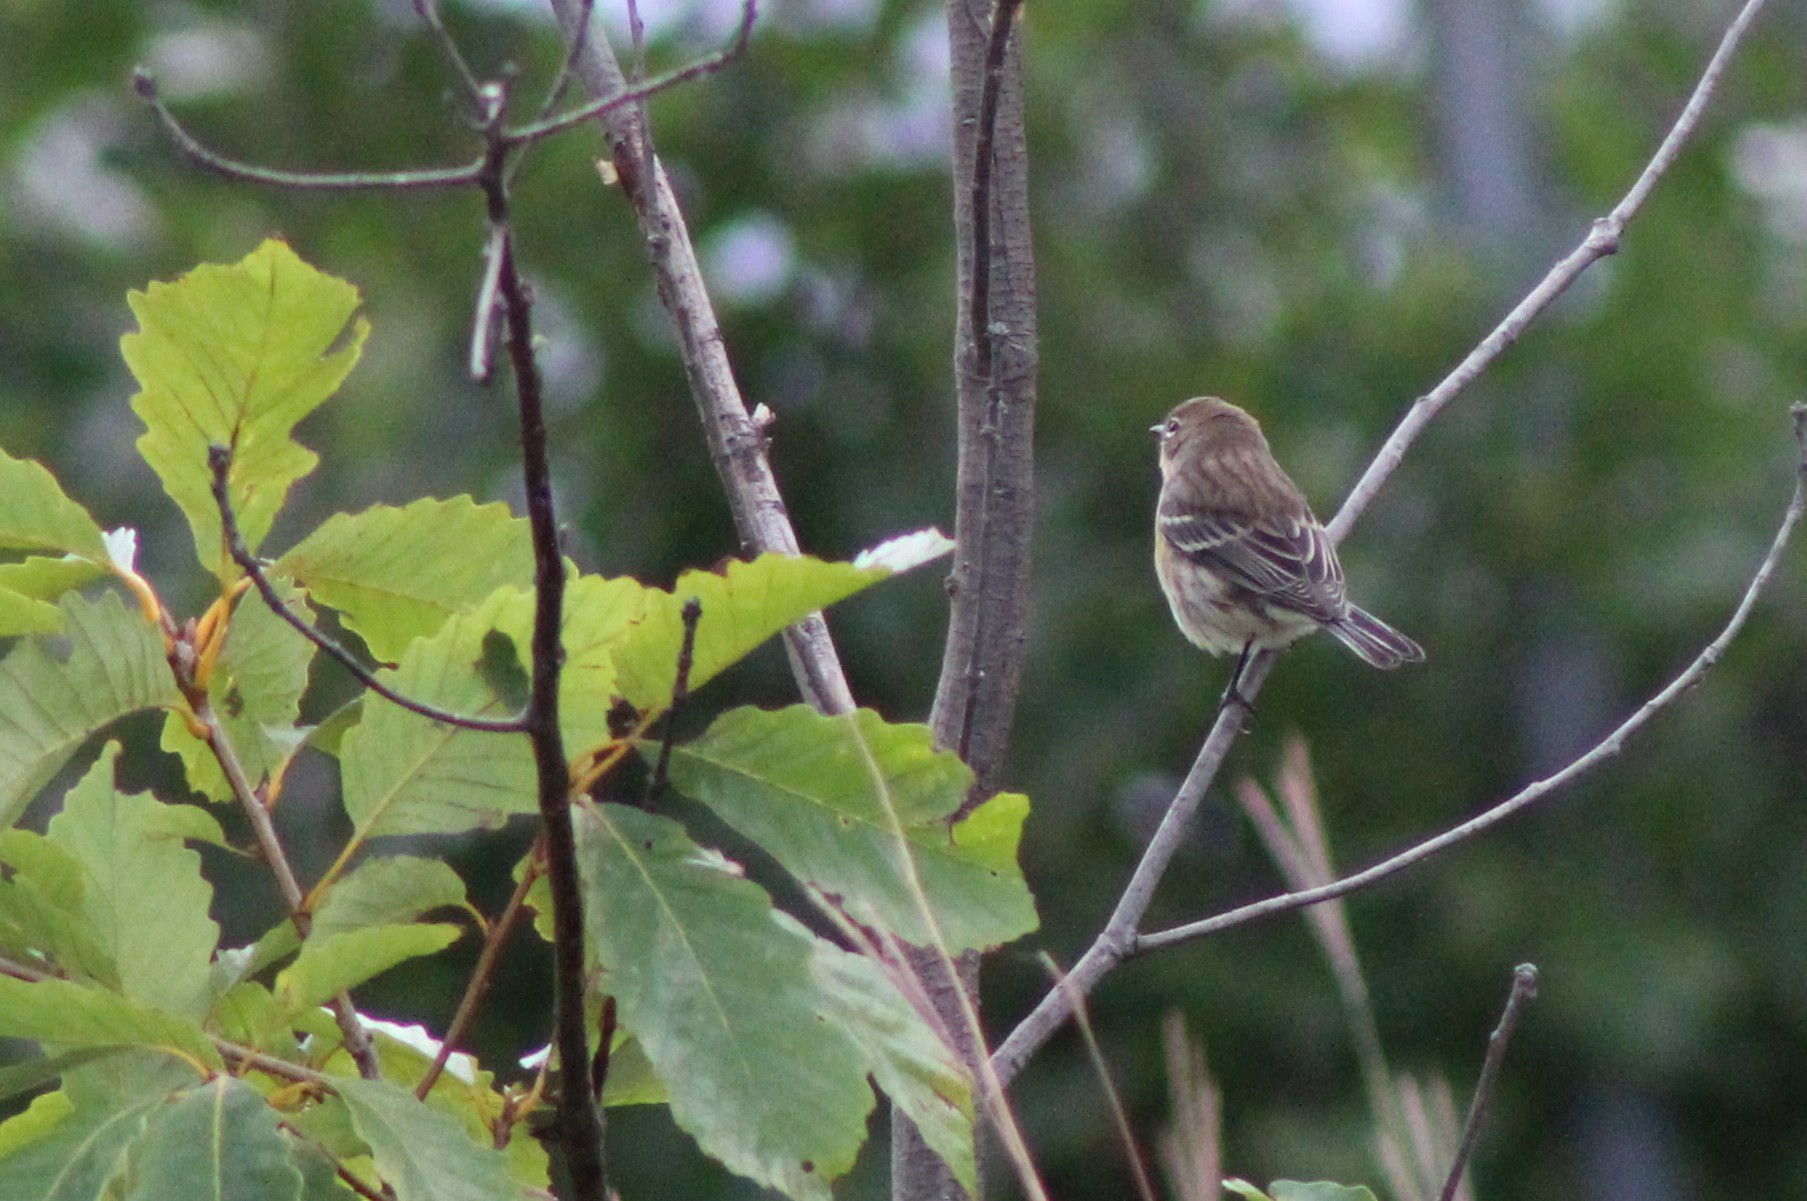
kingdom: Animalia
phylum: Chordata
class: Aves
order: Passeriformes
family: Parulidae
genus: Setophaga
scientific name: Setophaga coronata
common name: Myrtle warbler
